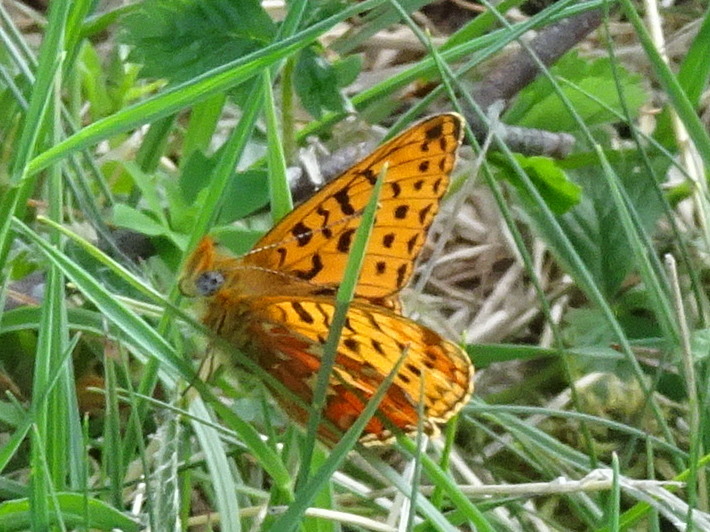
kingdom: Animalia
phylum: Arthropoda
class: Insecta
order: Lepidoptera
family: Nymphalidae
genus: Clossiana
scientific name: Clossiana euphrosyne
